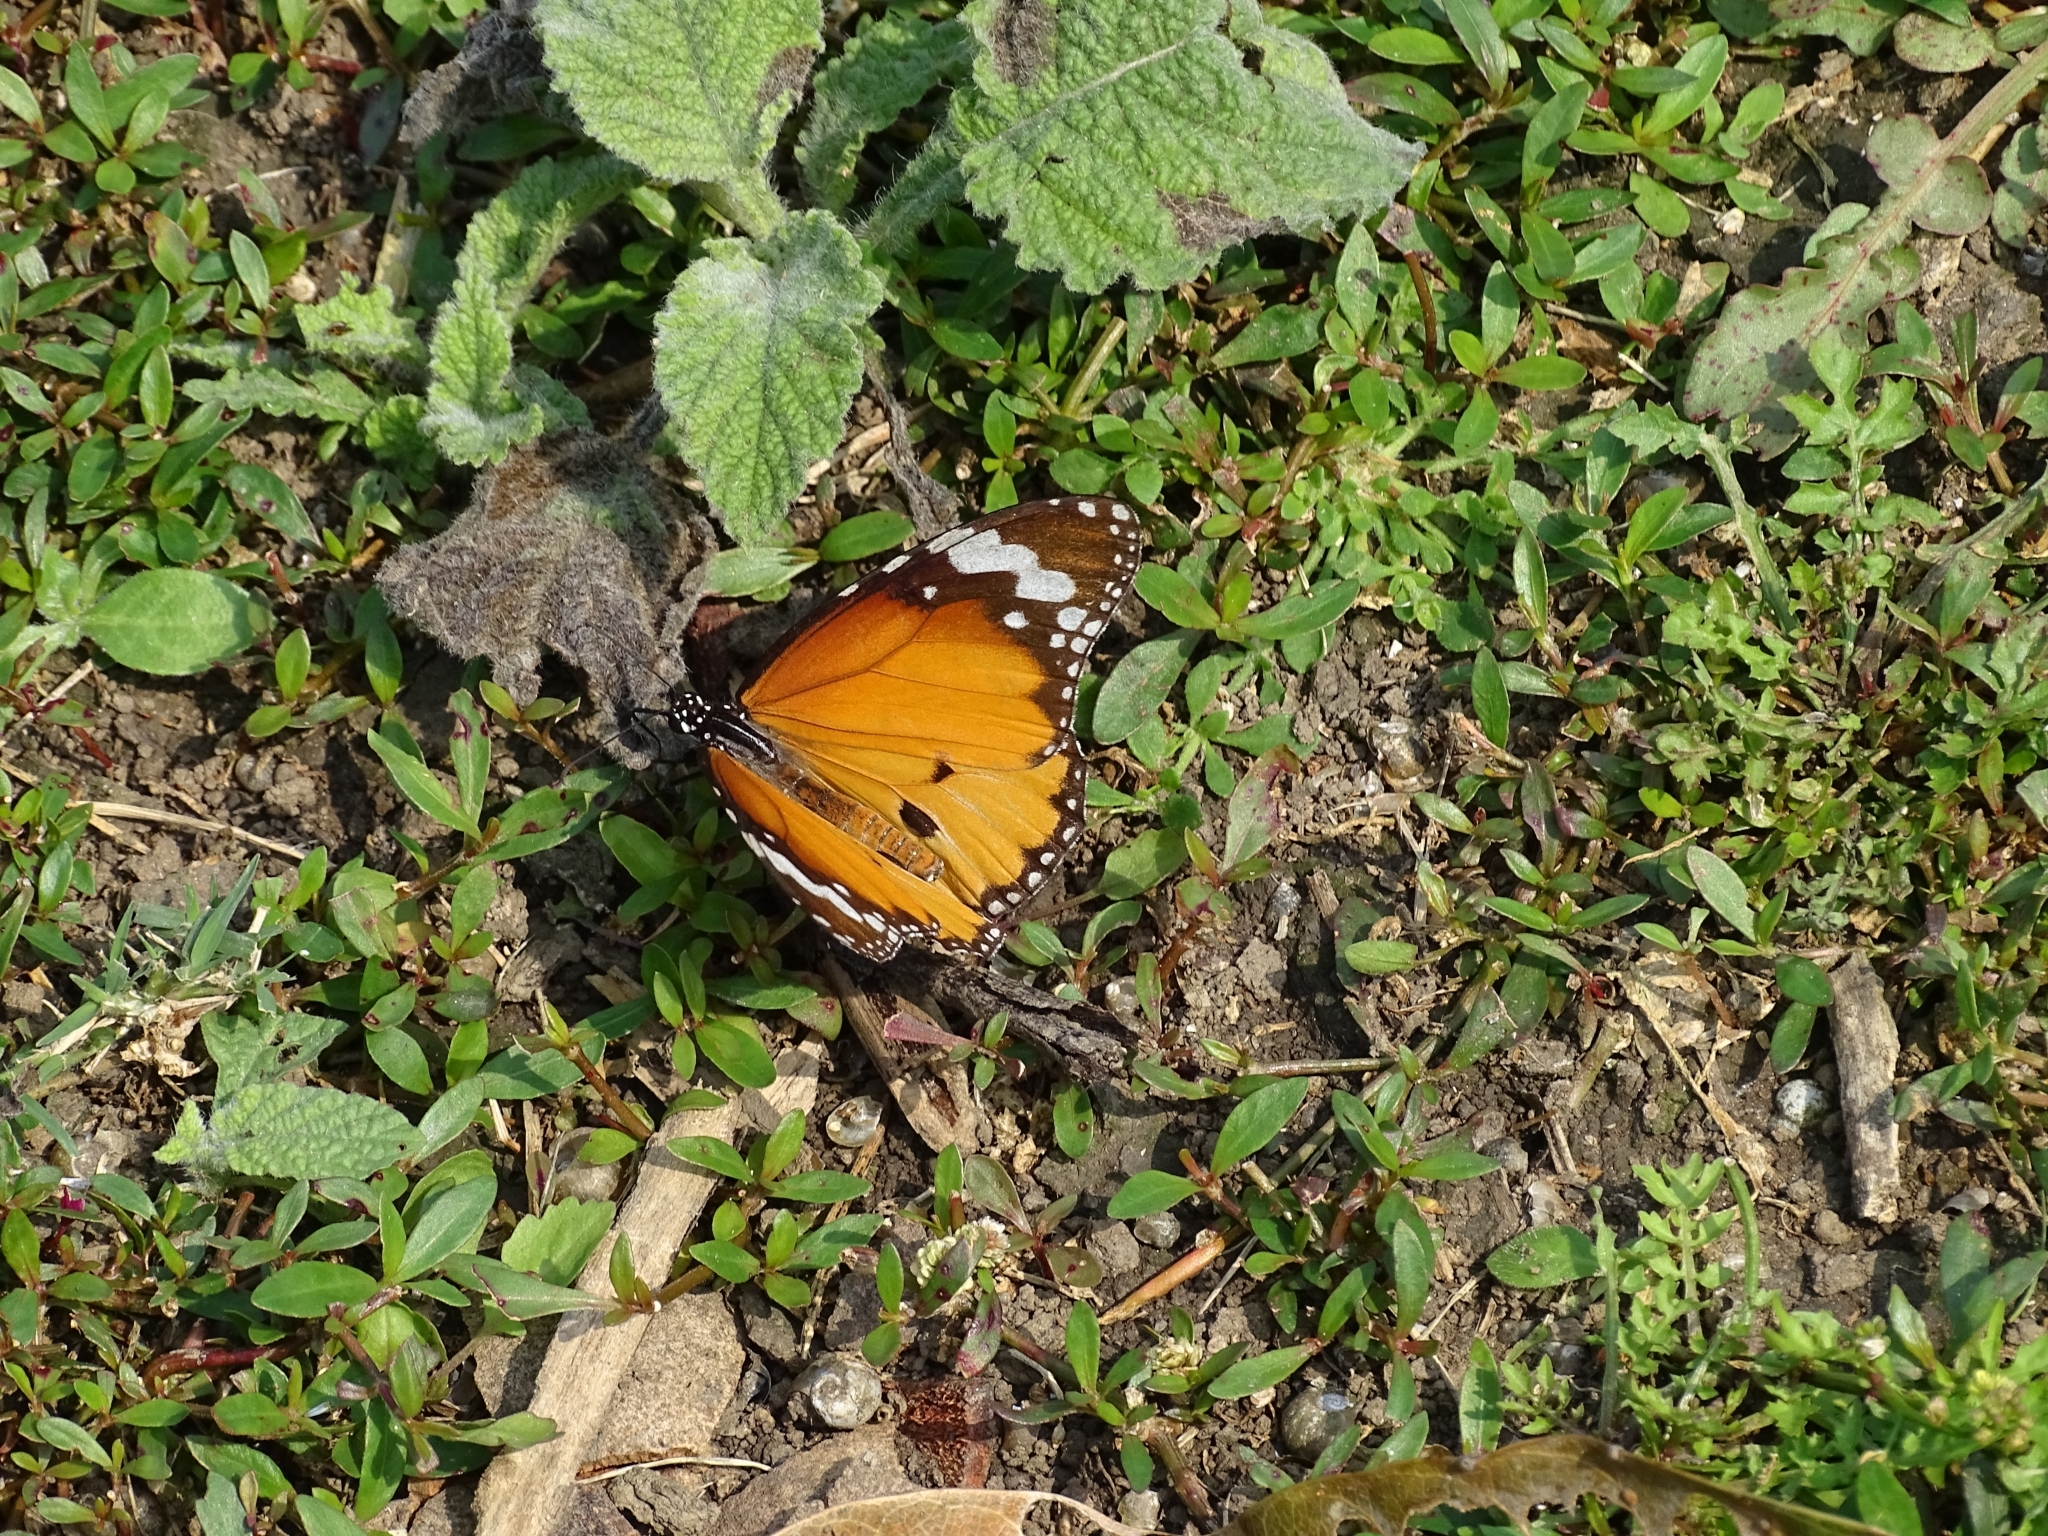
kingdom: Animalia
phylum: Arthropoda
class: Insecta
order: Lepidoptera
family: Nymphalidae
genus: Danaus
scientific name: Danaus chrysippus
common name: Plain tiger
